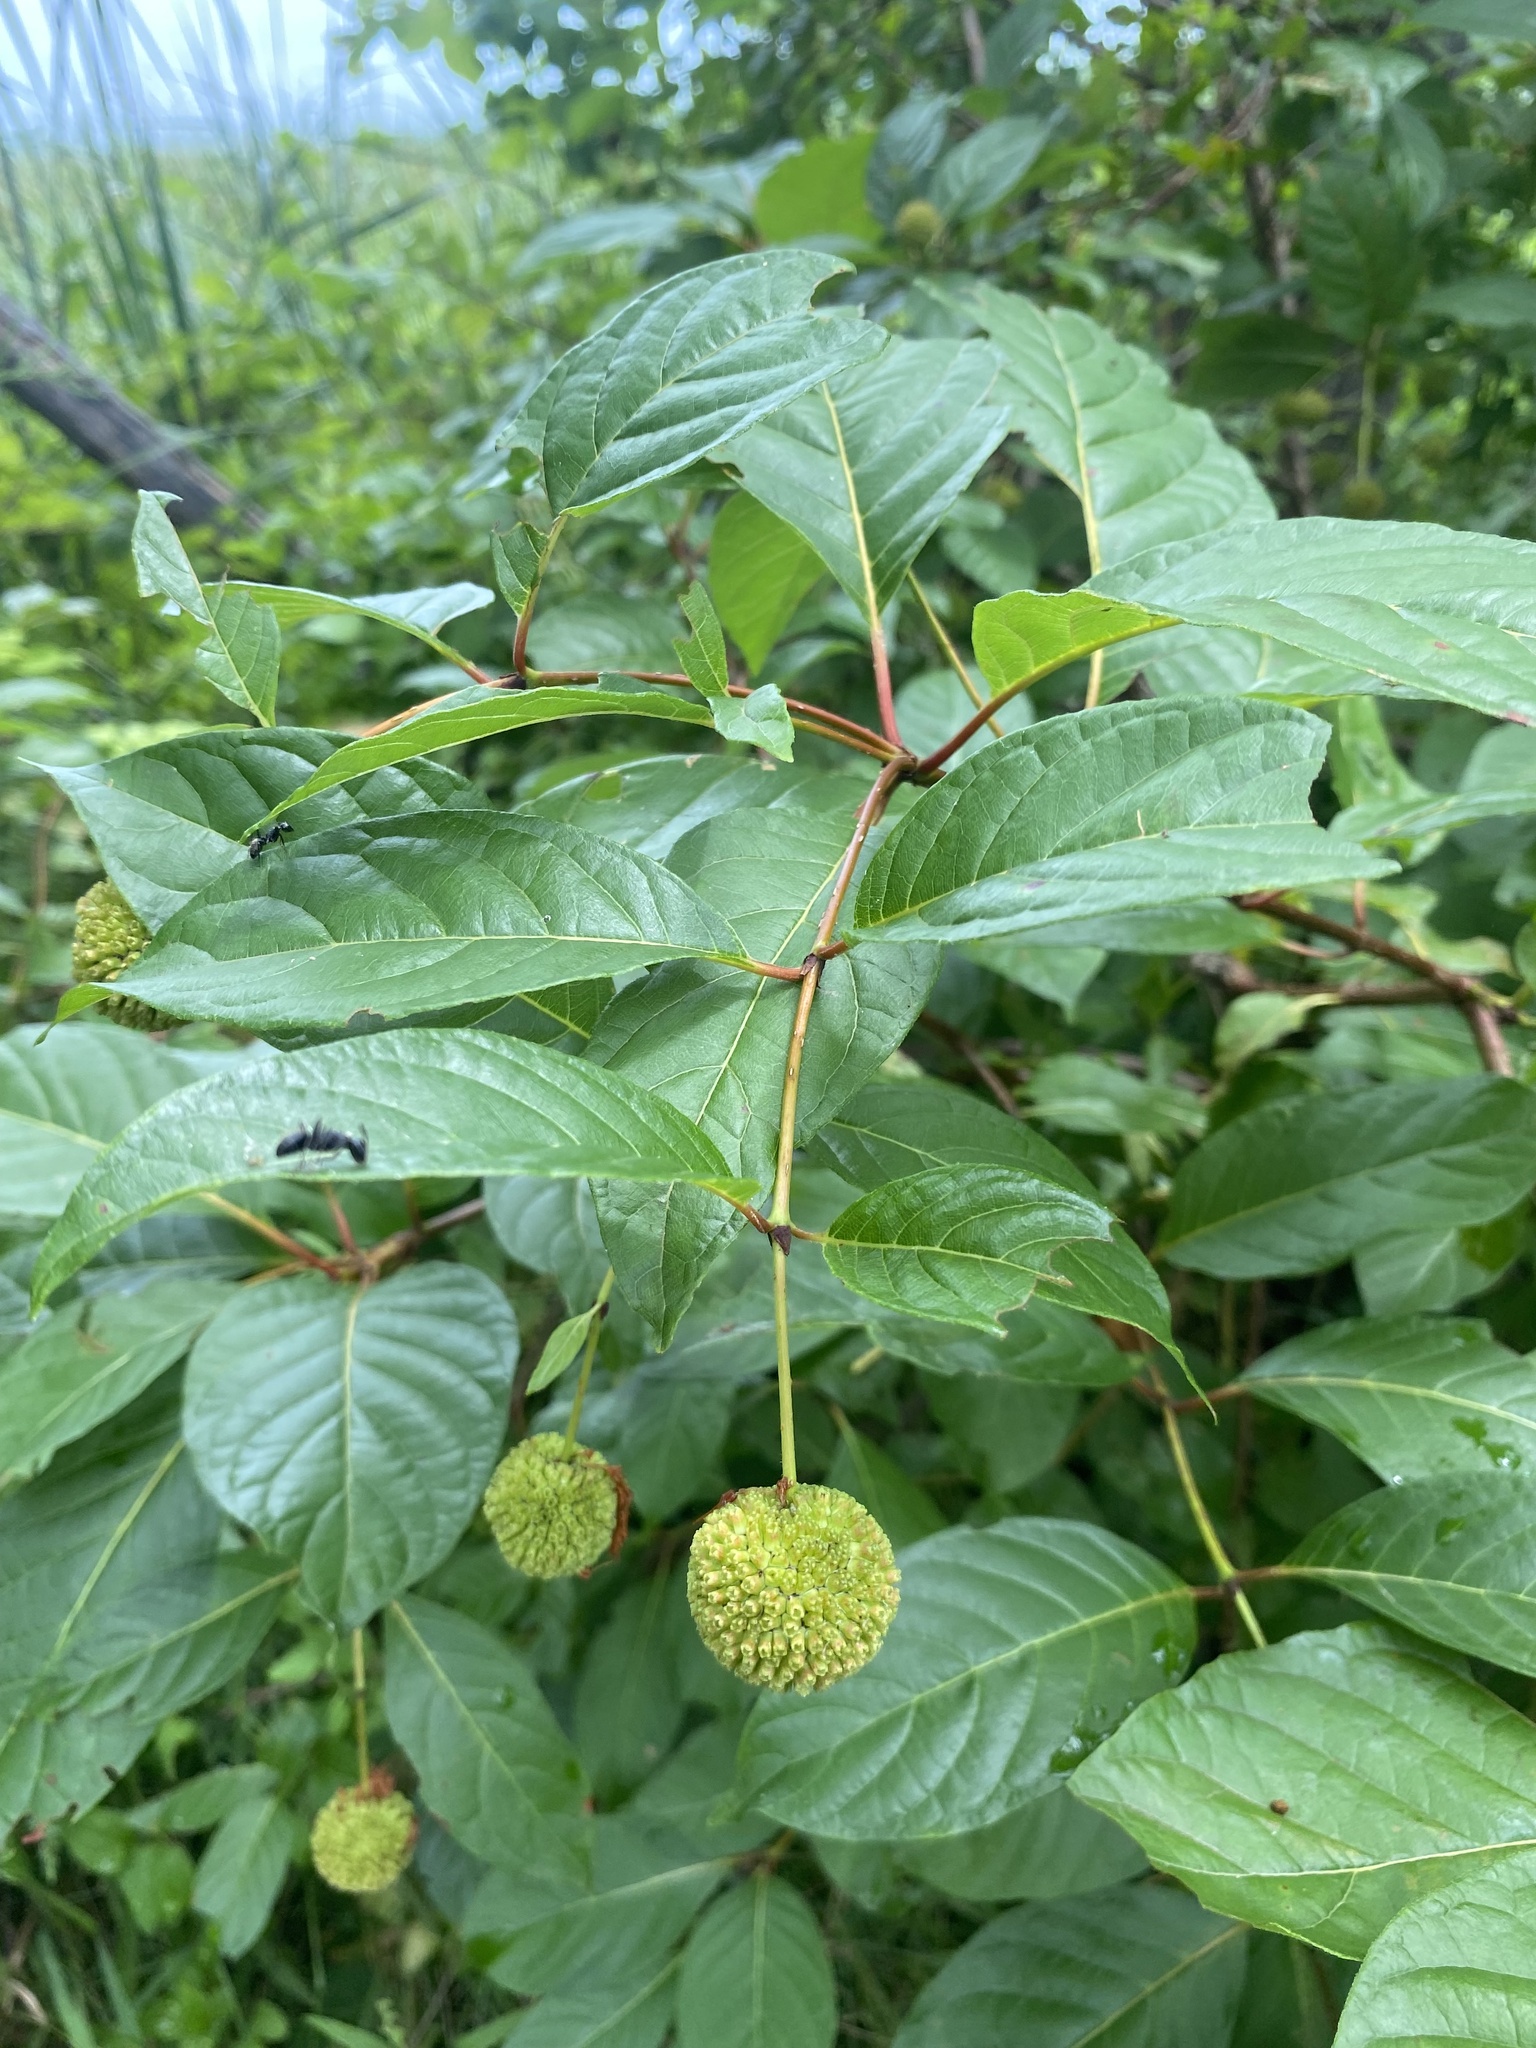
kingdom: Plantae
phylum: Tracheophyta
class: Magnoliopsida
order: Gentianales
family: Rubiaceae
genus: Cephalanthus
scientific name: Cephalanthus occidentalis
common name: Button-willow
